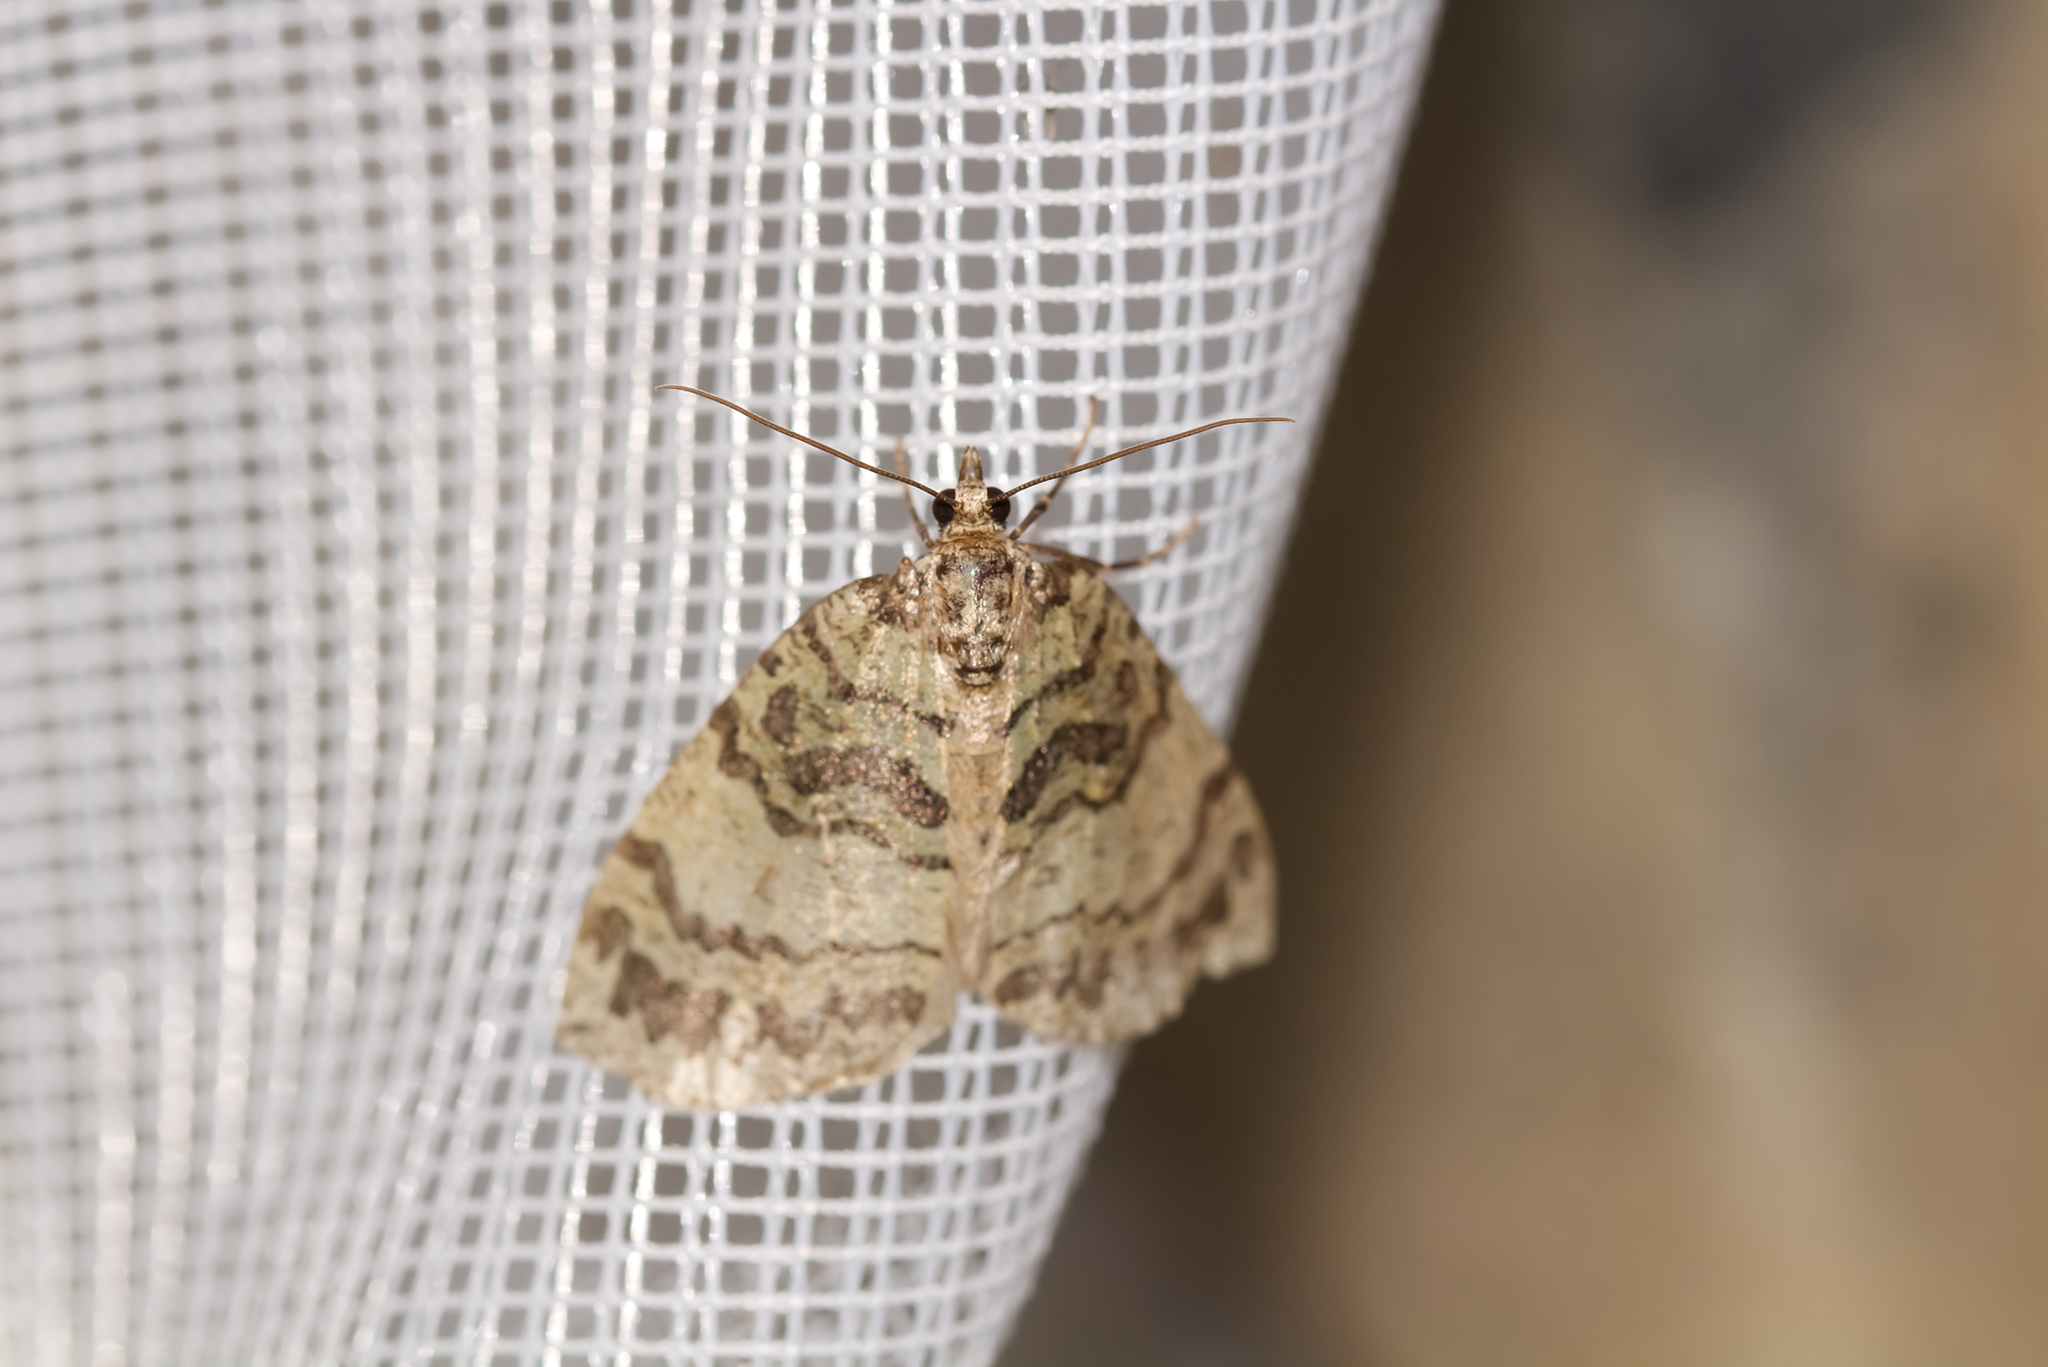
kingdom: Animalia
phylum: Arthropoda
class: Insecta
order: Lepidoptera
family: Geometridae
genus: Hydriomena
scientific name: Hydriomena furcata
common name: July highflyer
